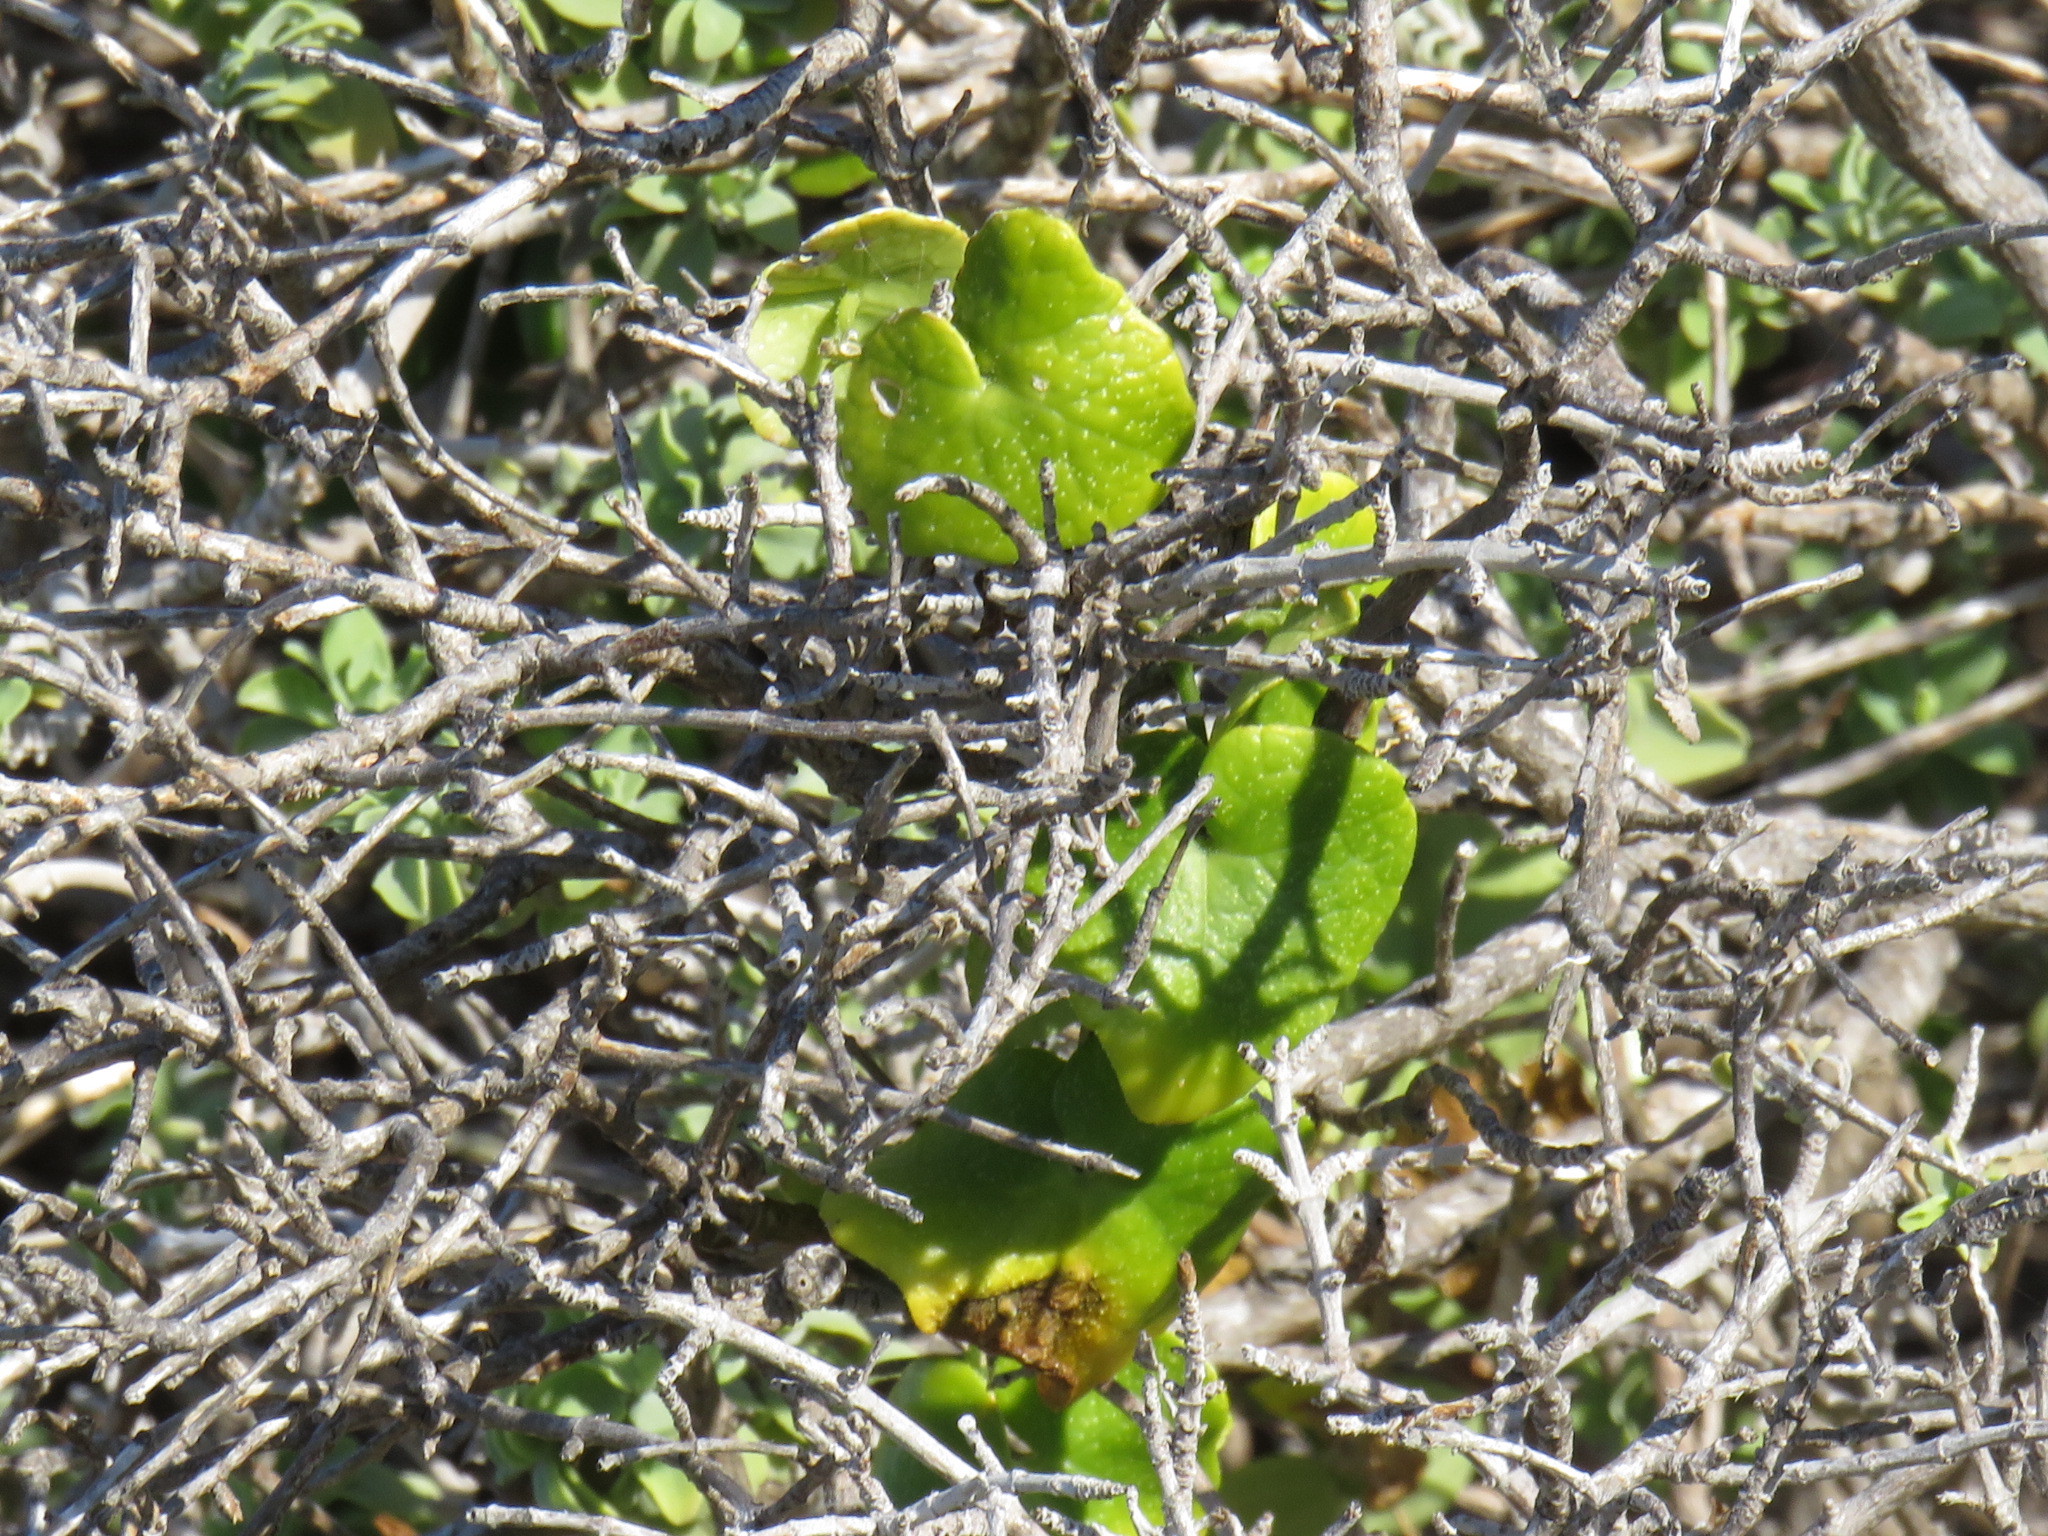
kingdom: Plantae
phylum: Tracheophyta
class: Magnoliopsida
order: Cucurbitales
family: Cucurbitaceae
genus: Kedrostis
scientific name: Kedrostis nana
